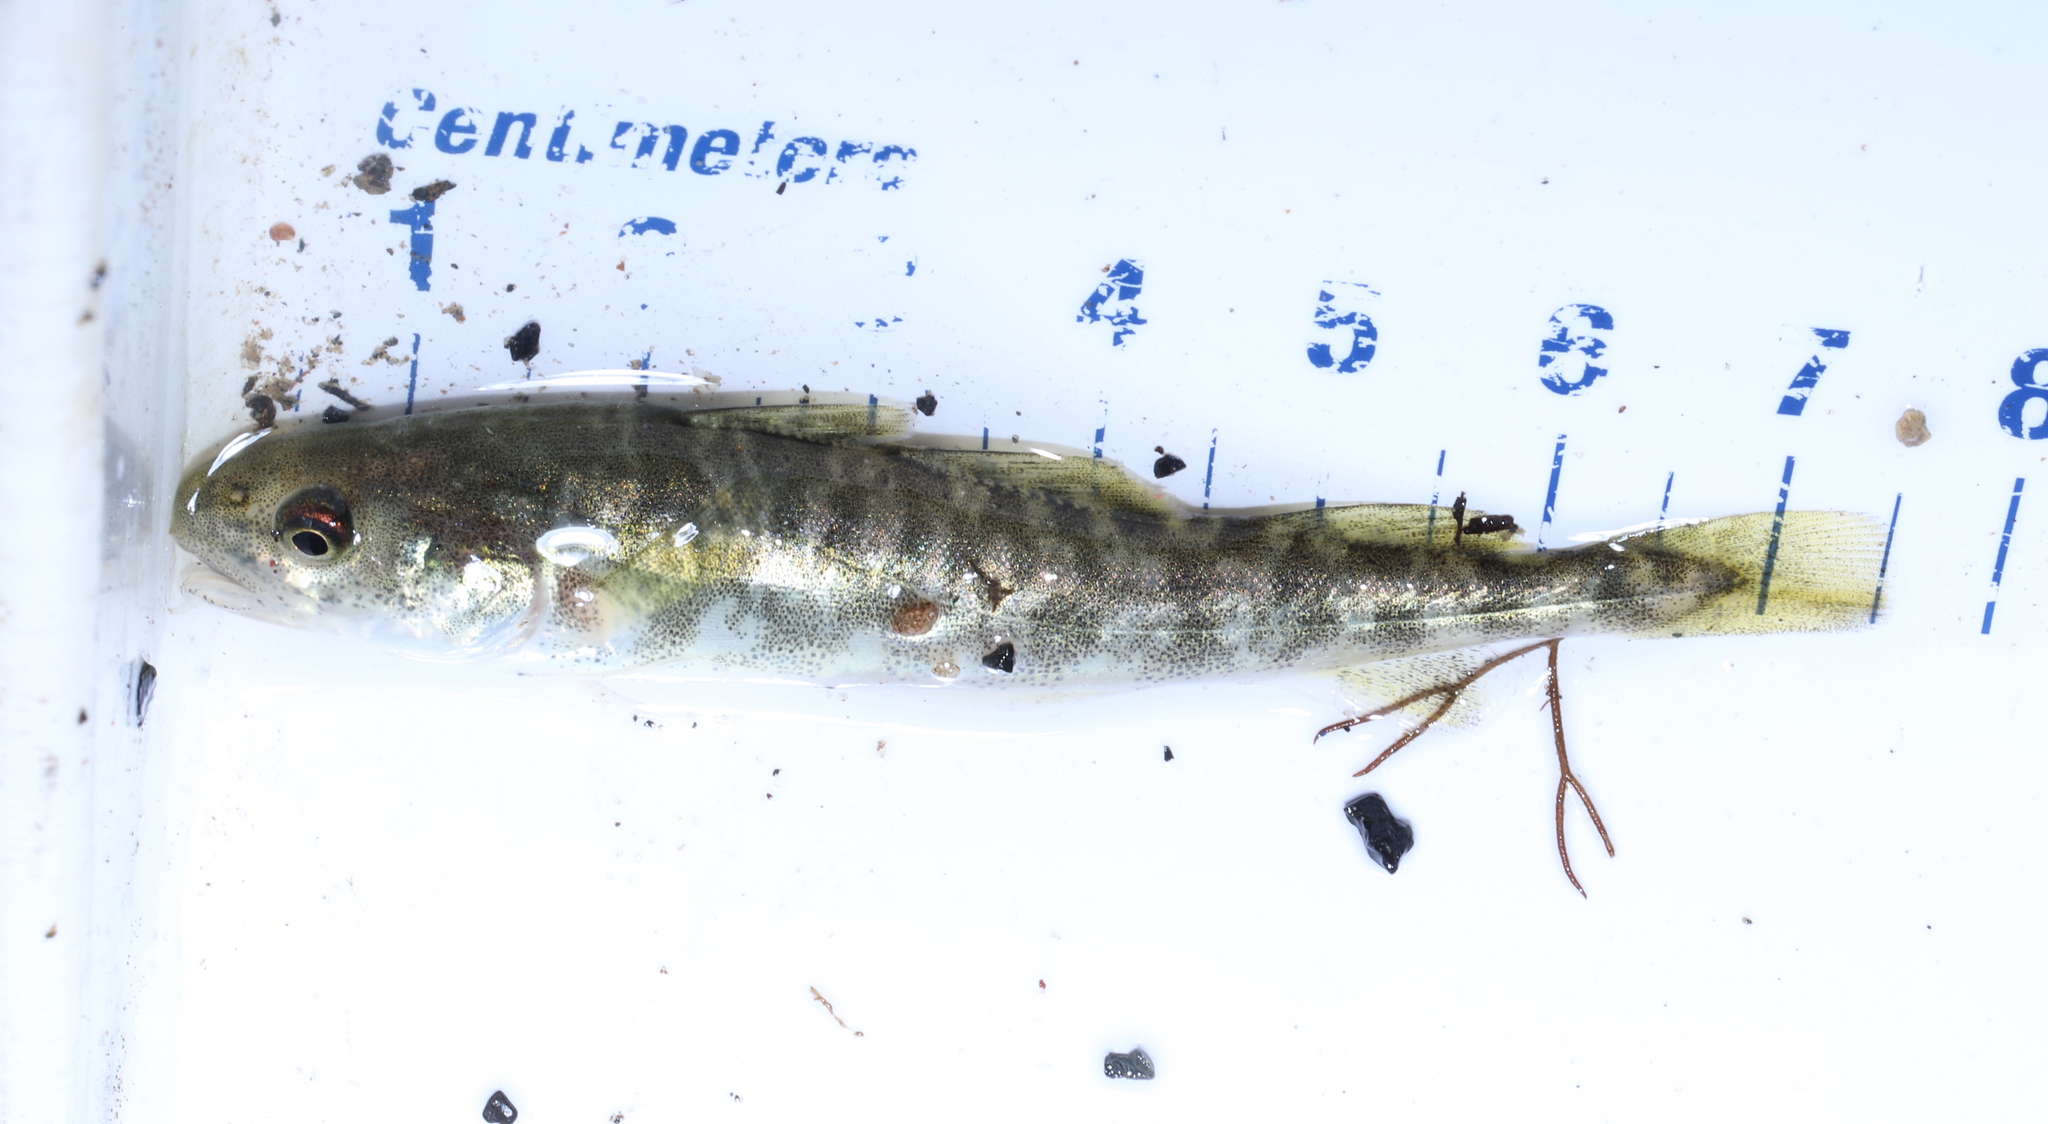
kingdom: Animalia
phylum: Chordata
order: Gadiformes
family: Gadidae
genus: Microgadus
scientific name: Microgadus tomcod
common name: Atlantic tomcod
